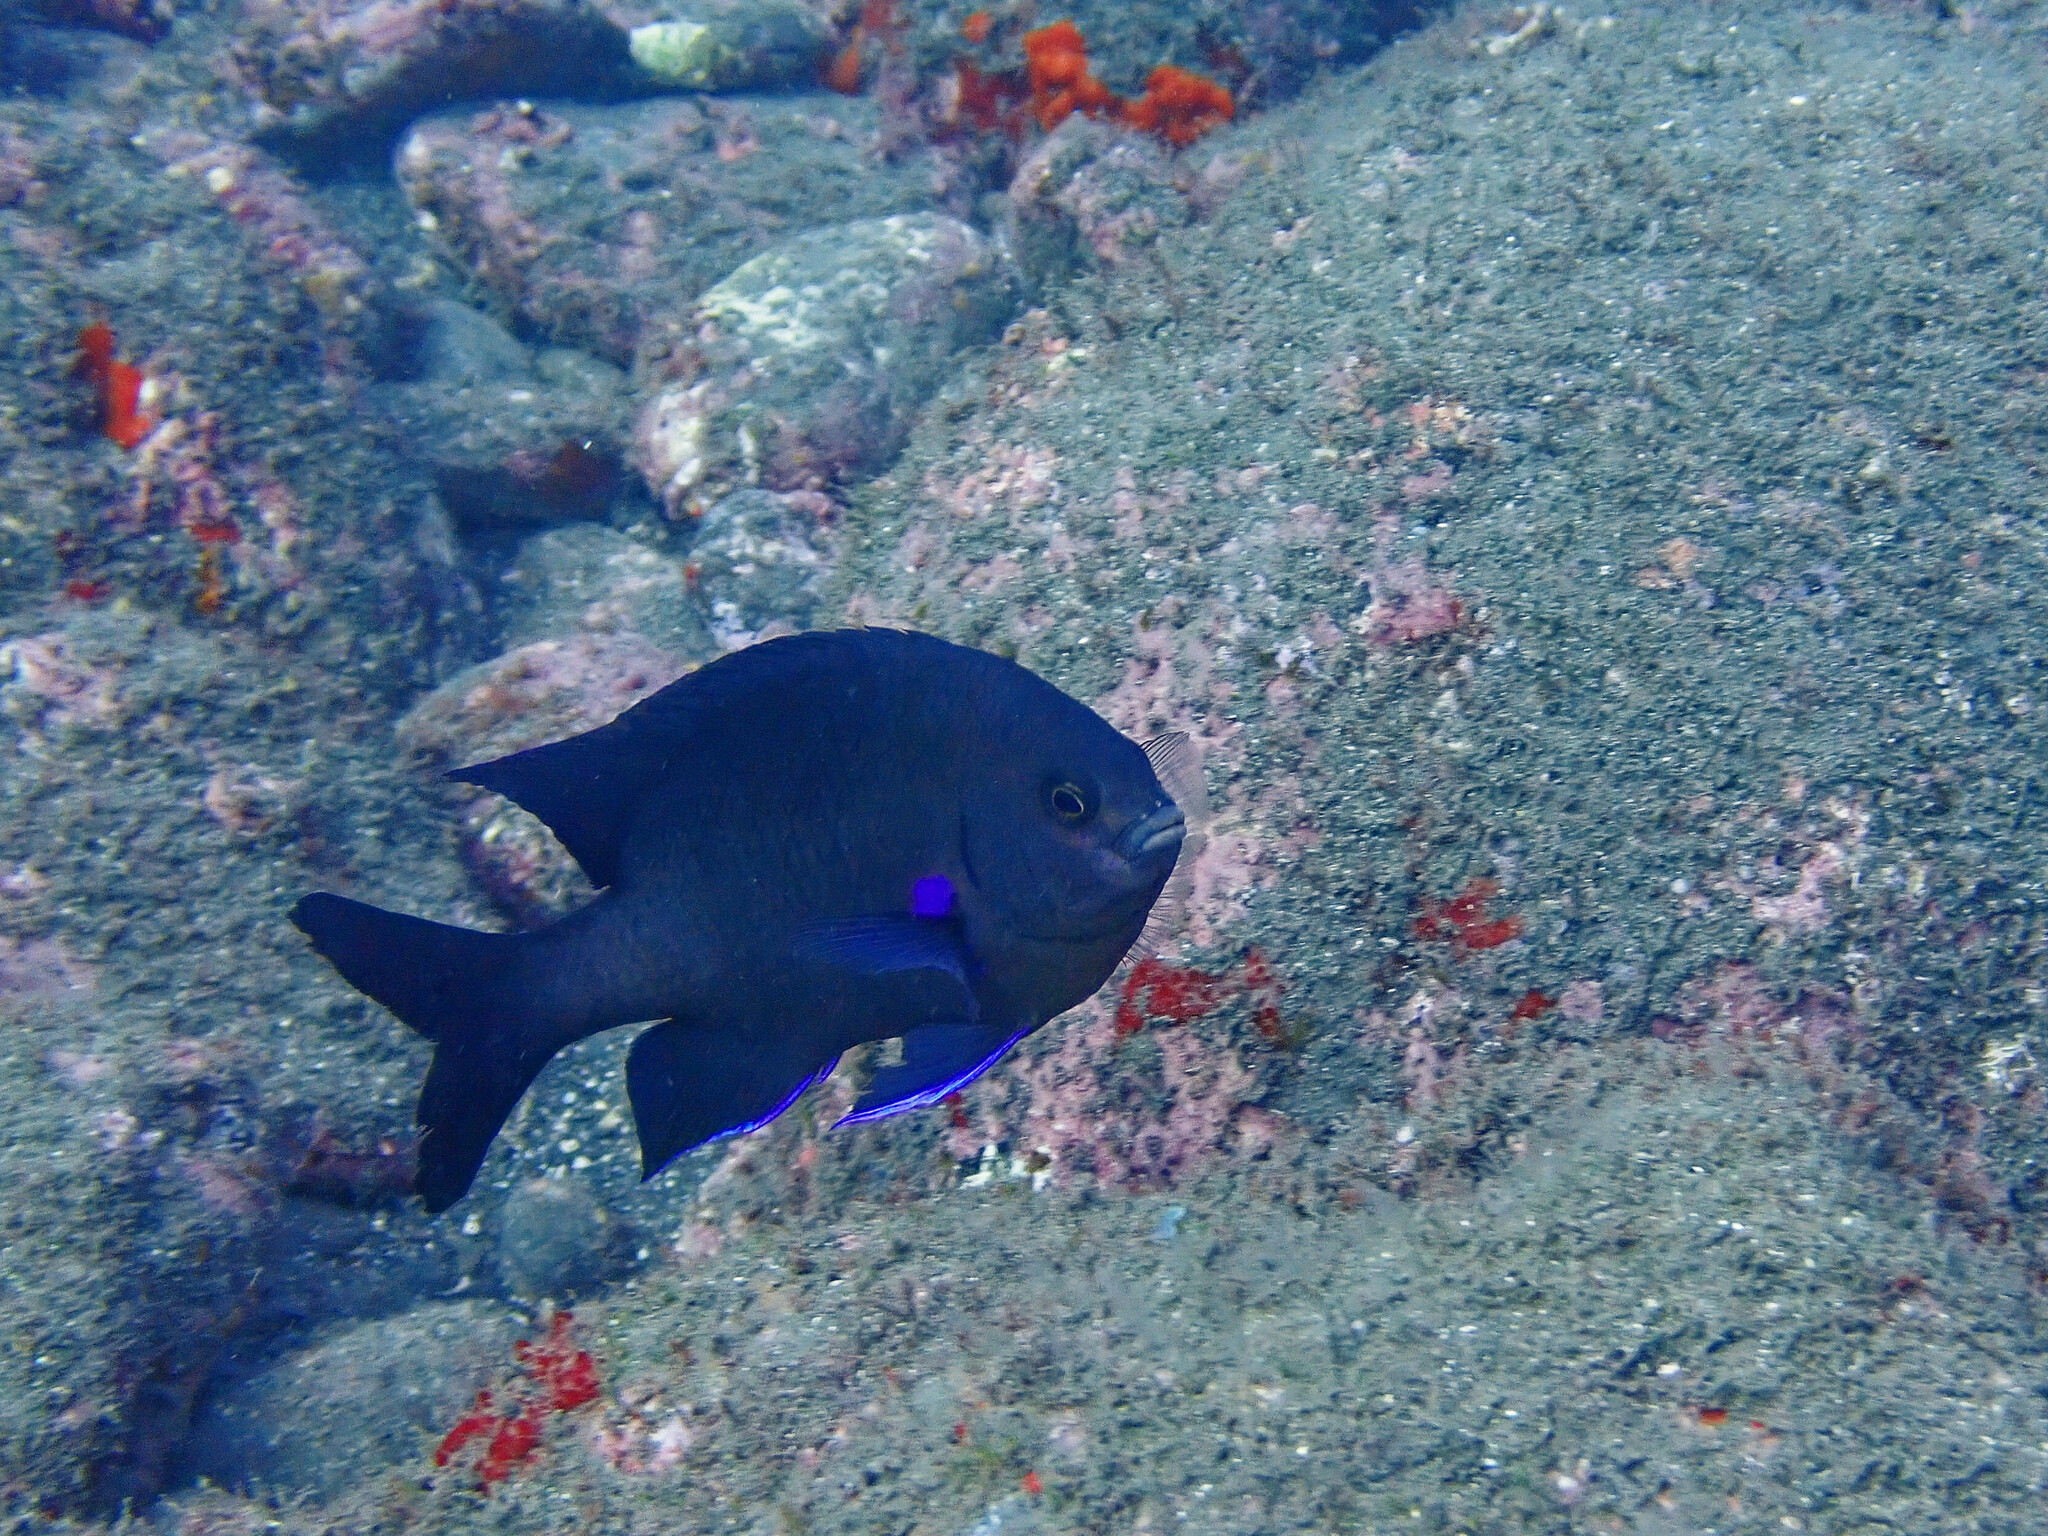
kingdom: Animalia
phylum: Chordata
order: Perciformes
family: Pomacentridae
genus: Similiparma
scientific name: Similiparma lurida
